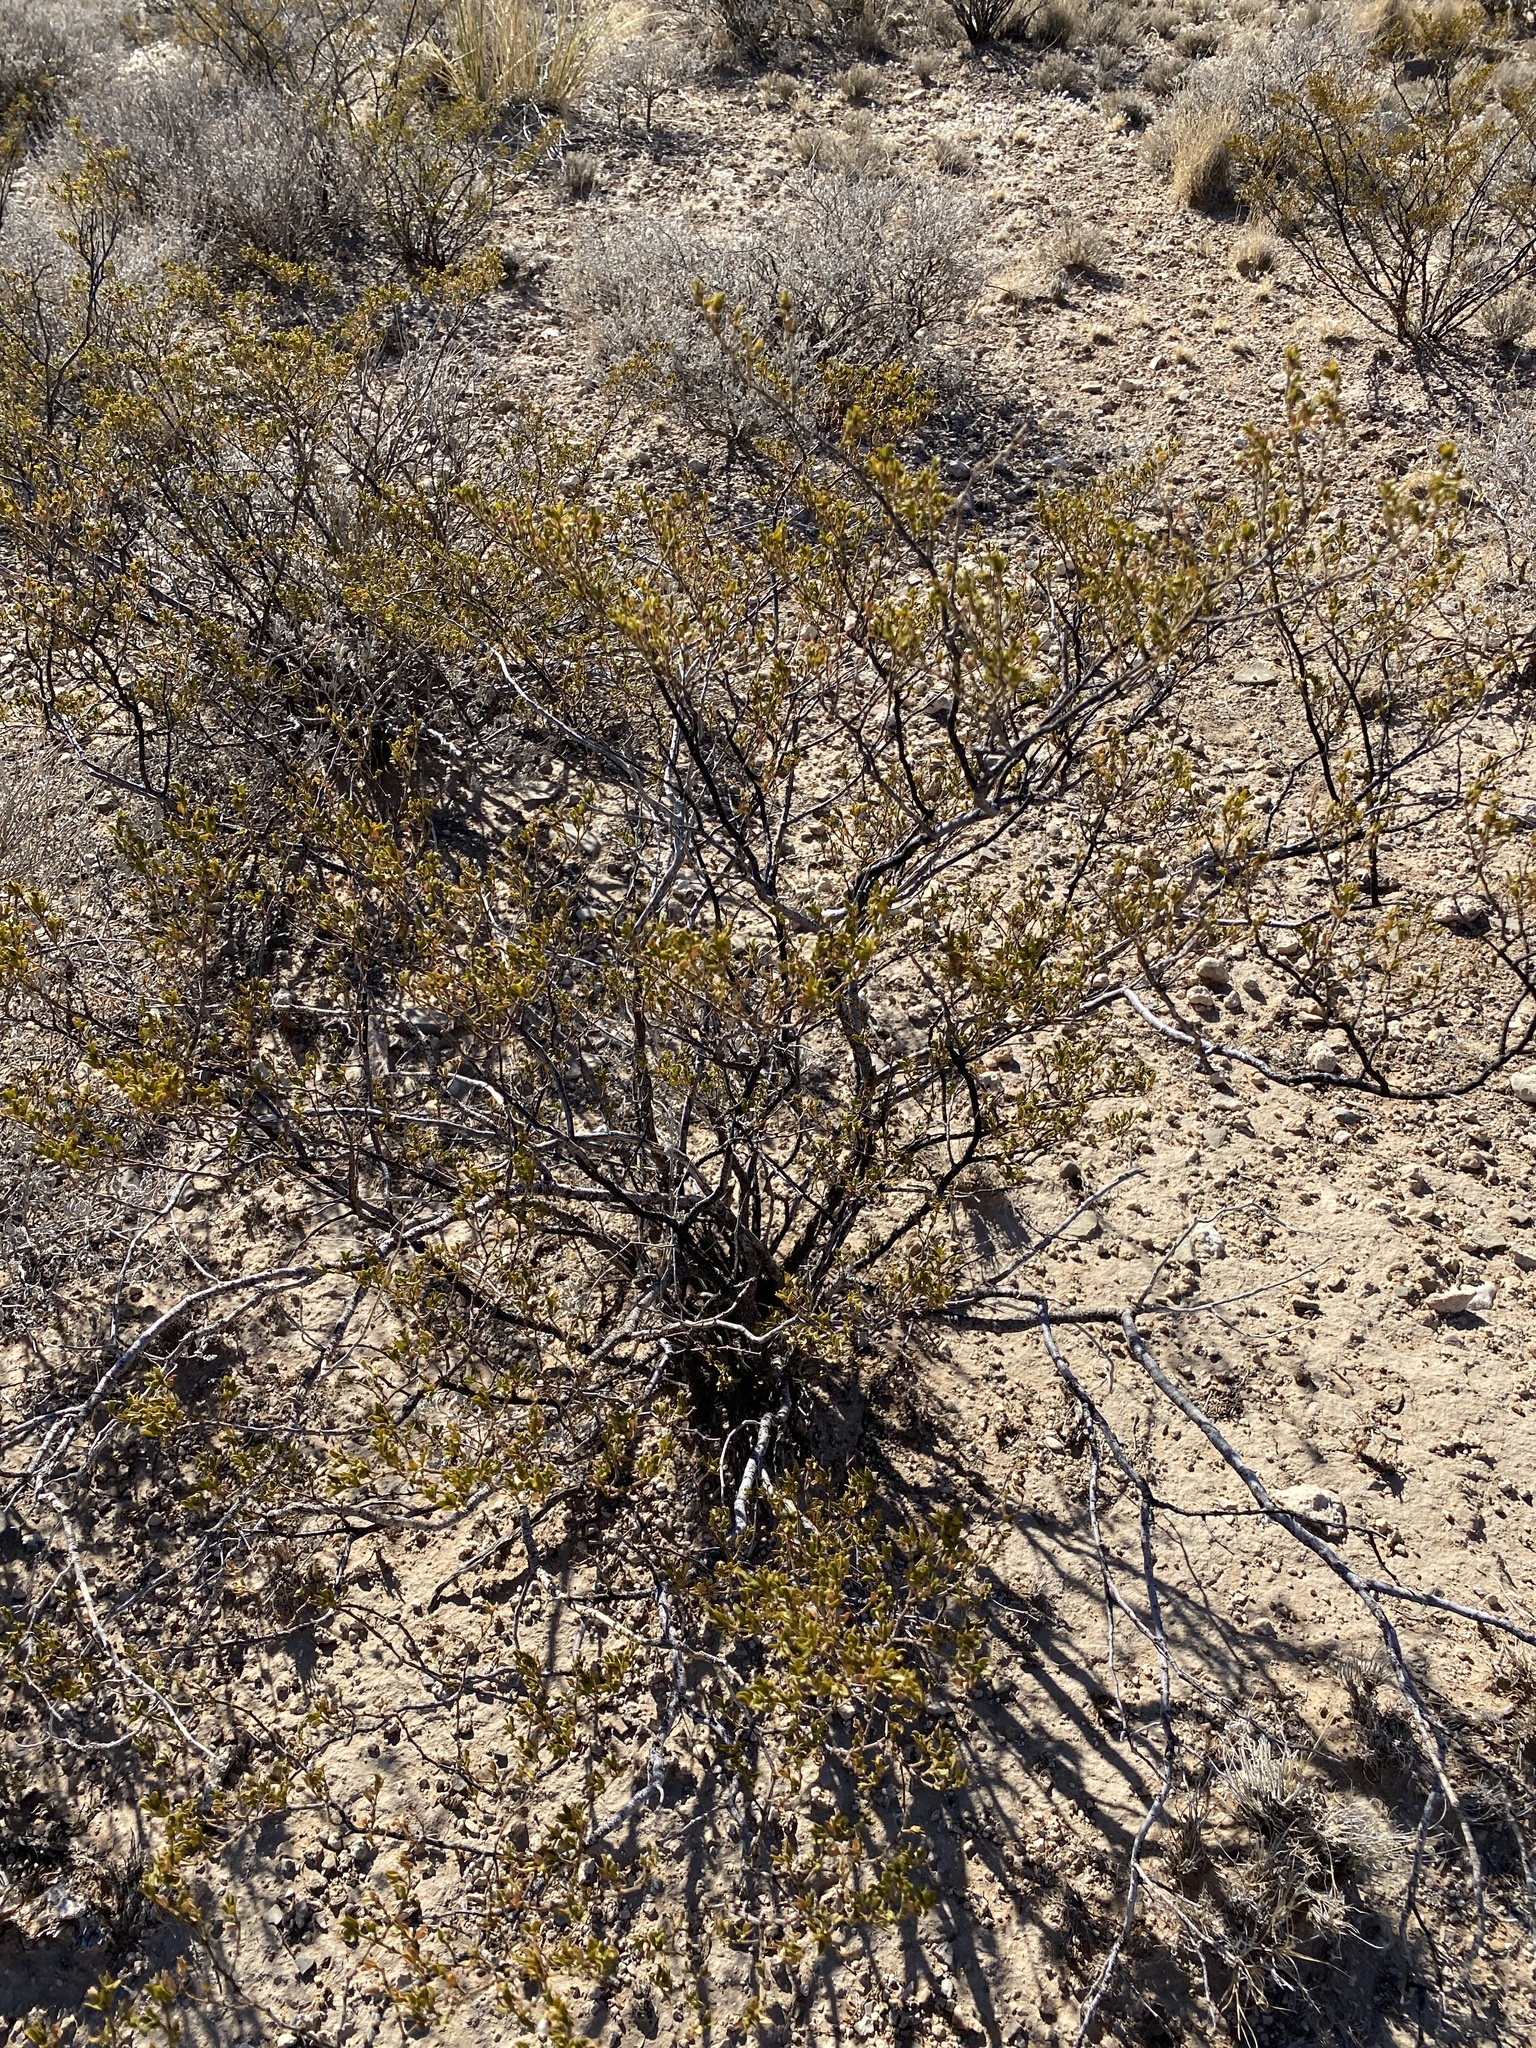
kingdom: Plantae
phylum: Tracheophyta
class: Magnoliopsida
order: Zygophyllales
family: Zygophyllaceae
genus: Larrea
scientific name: Larrea tridentata
